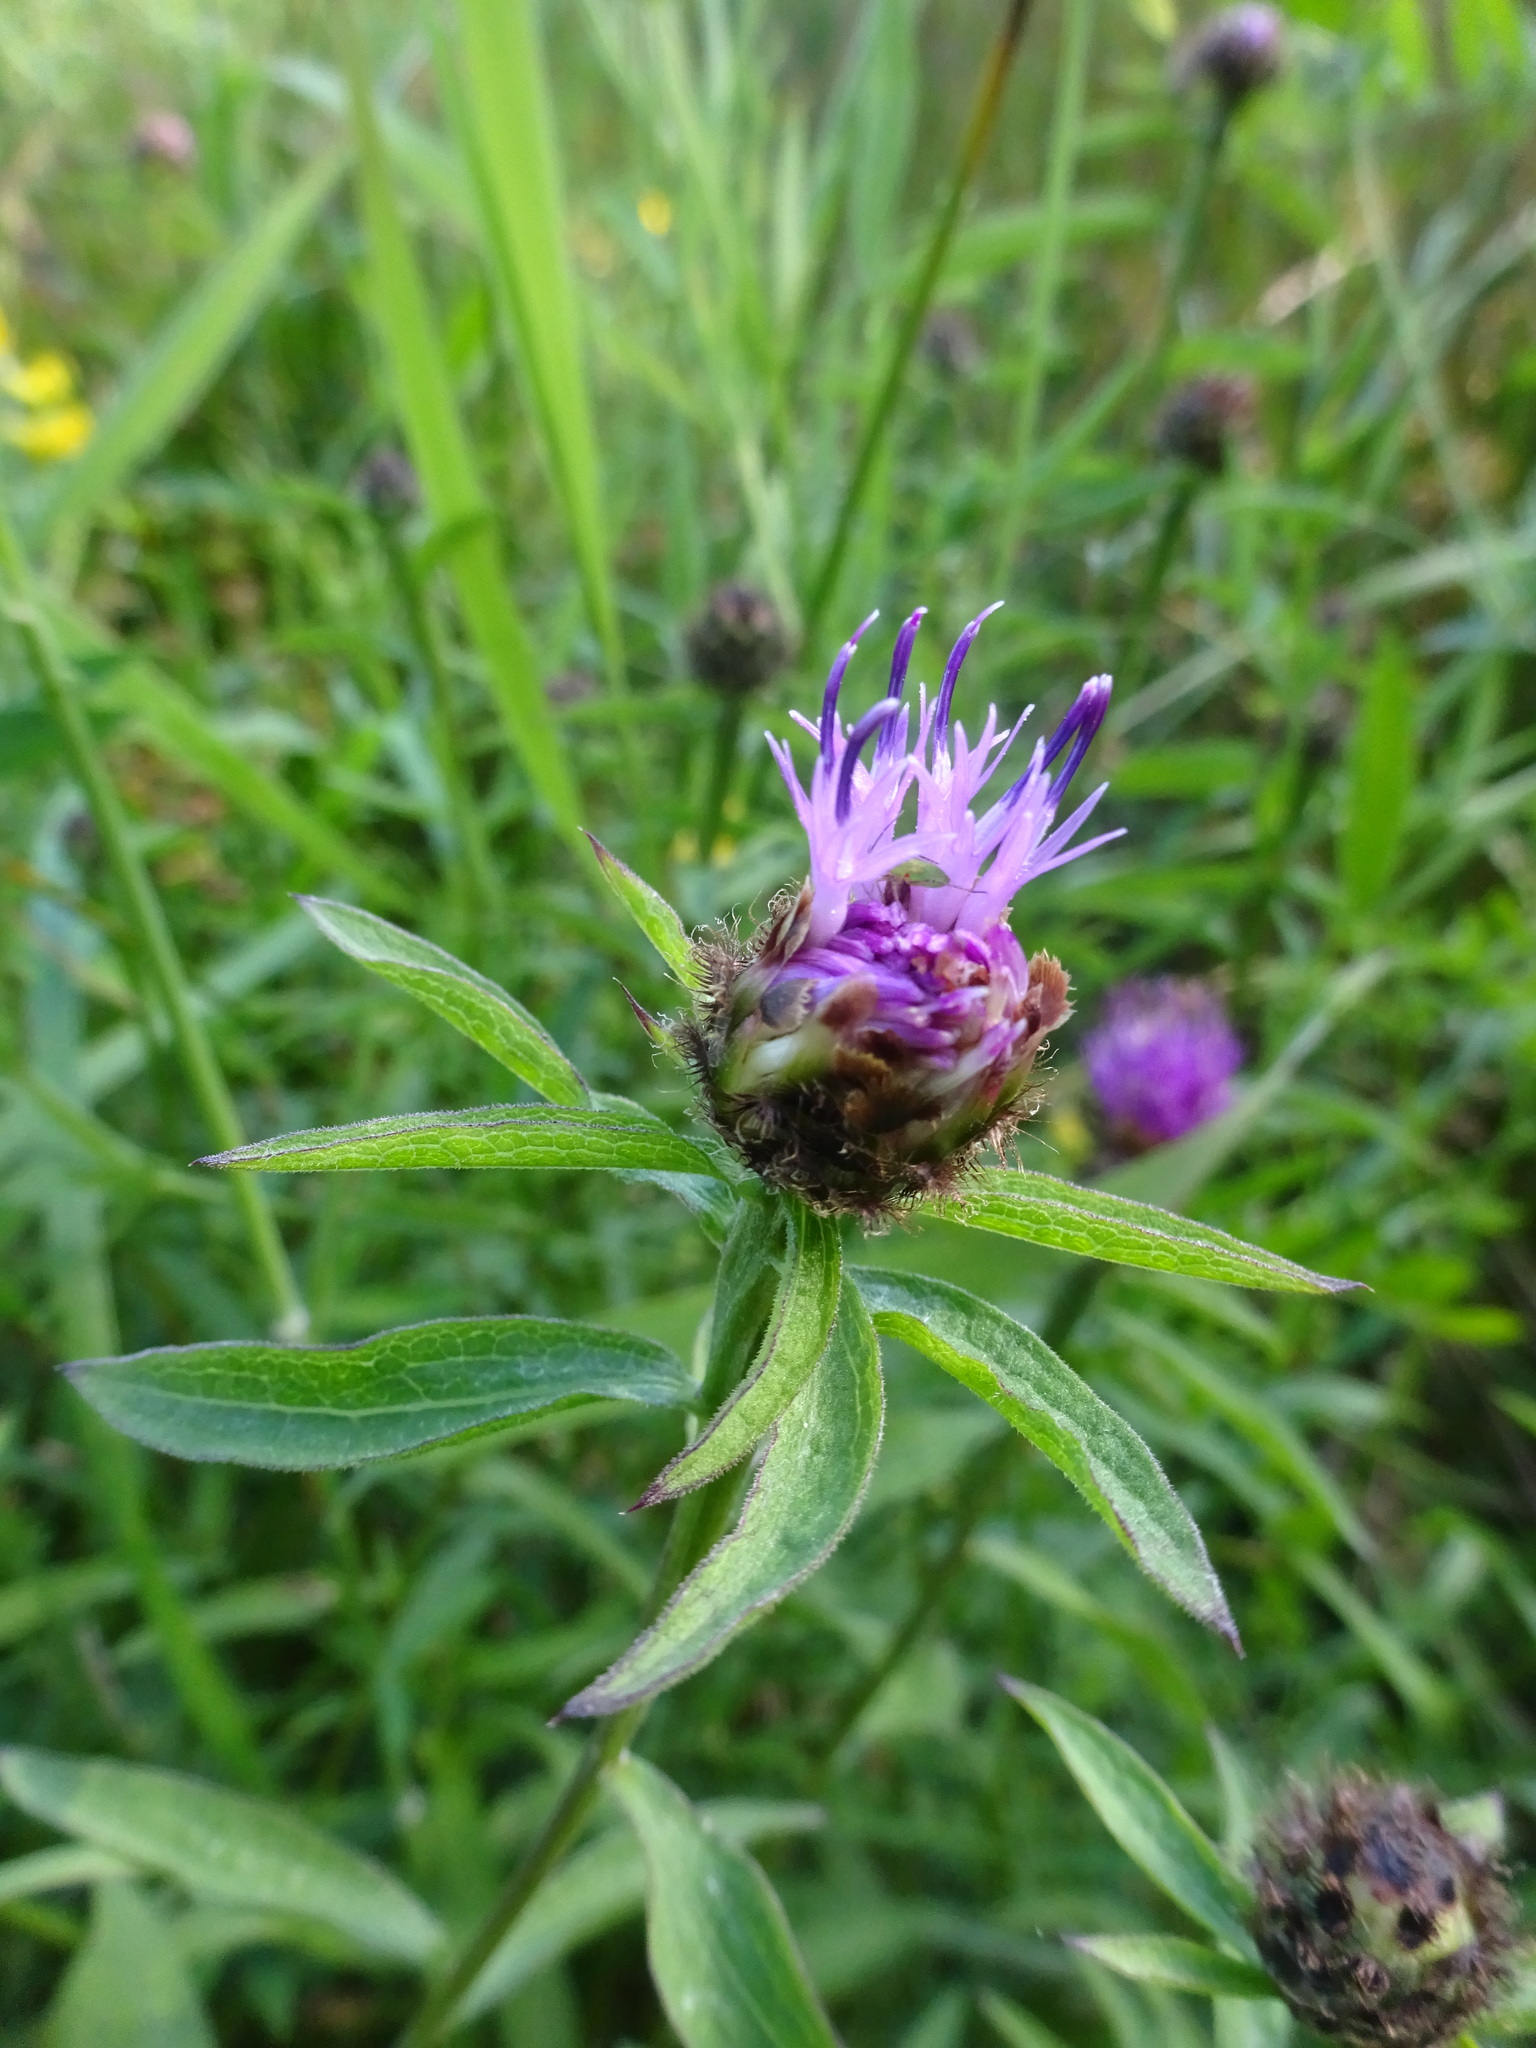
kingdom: Plantae
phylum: Tracheophyta
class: Magnoliopsida
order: Asterales
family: Asteraceae
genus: Centaurea
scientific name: Centaurea nigra
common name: Lesser knapweed
